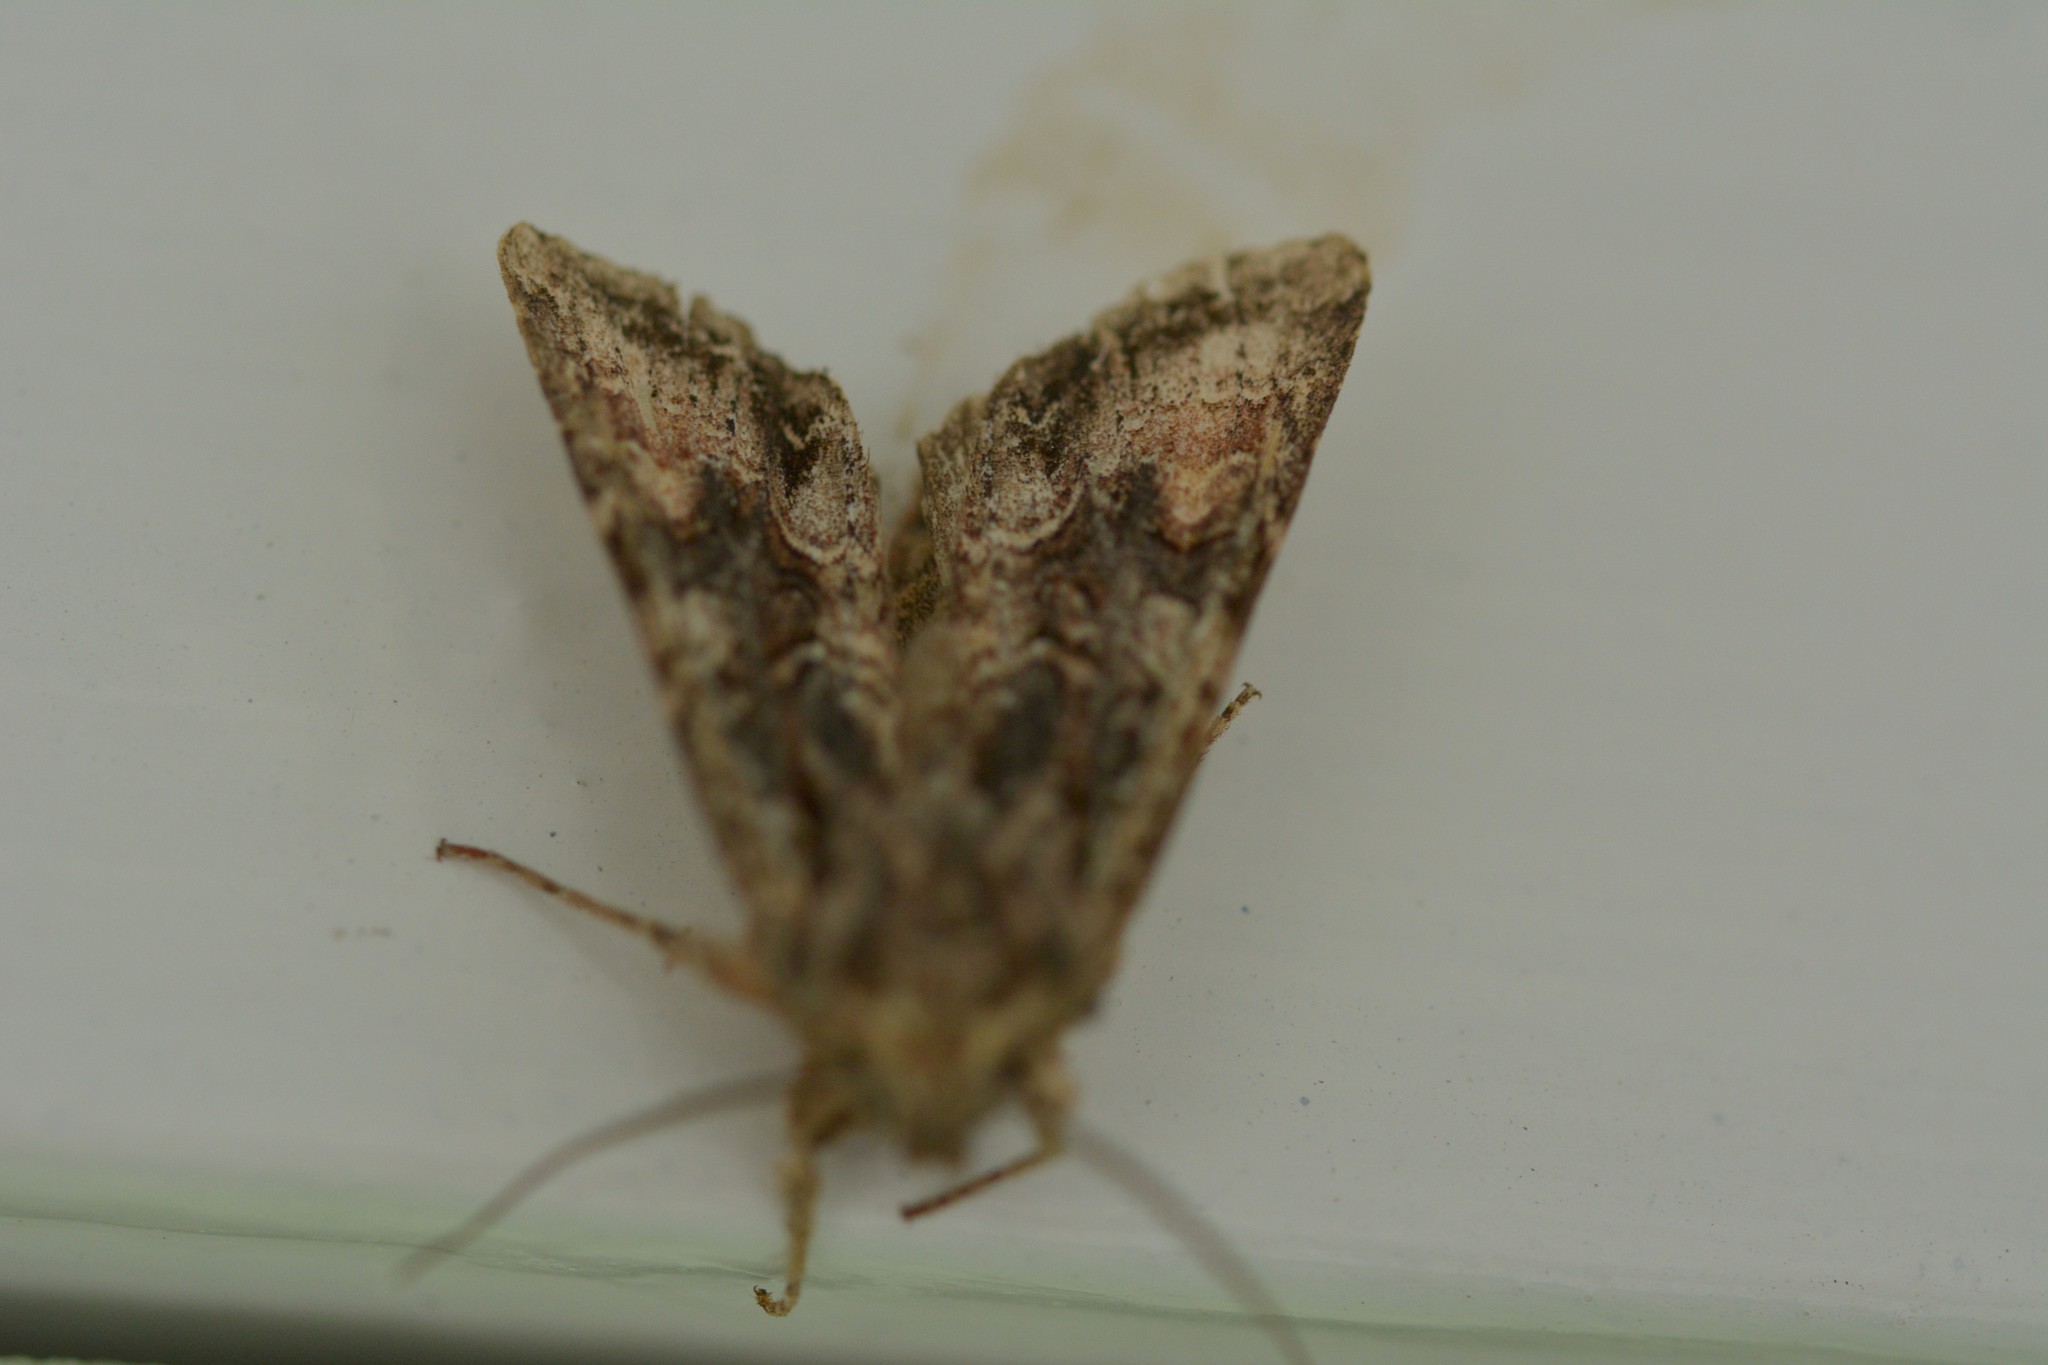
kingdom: Animalia
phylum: Arthropoda
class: Insecta
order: Lepidoptera
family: Noctuidae
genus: Ichneutica
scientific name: Ichneutica mutans
